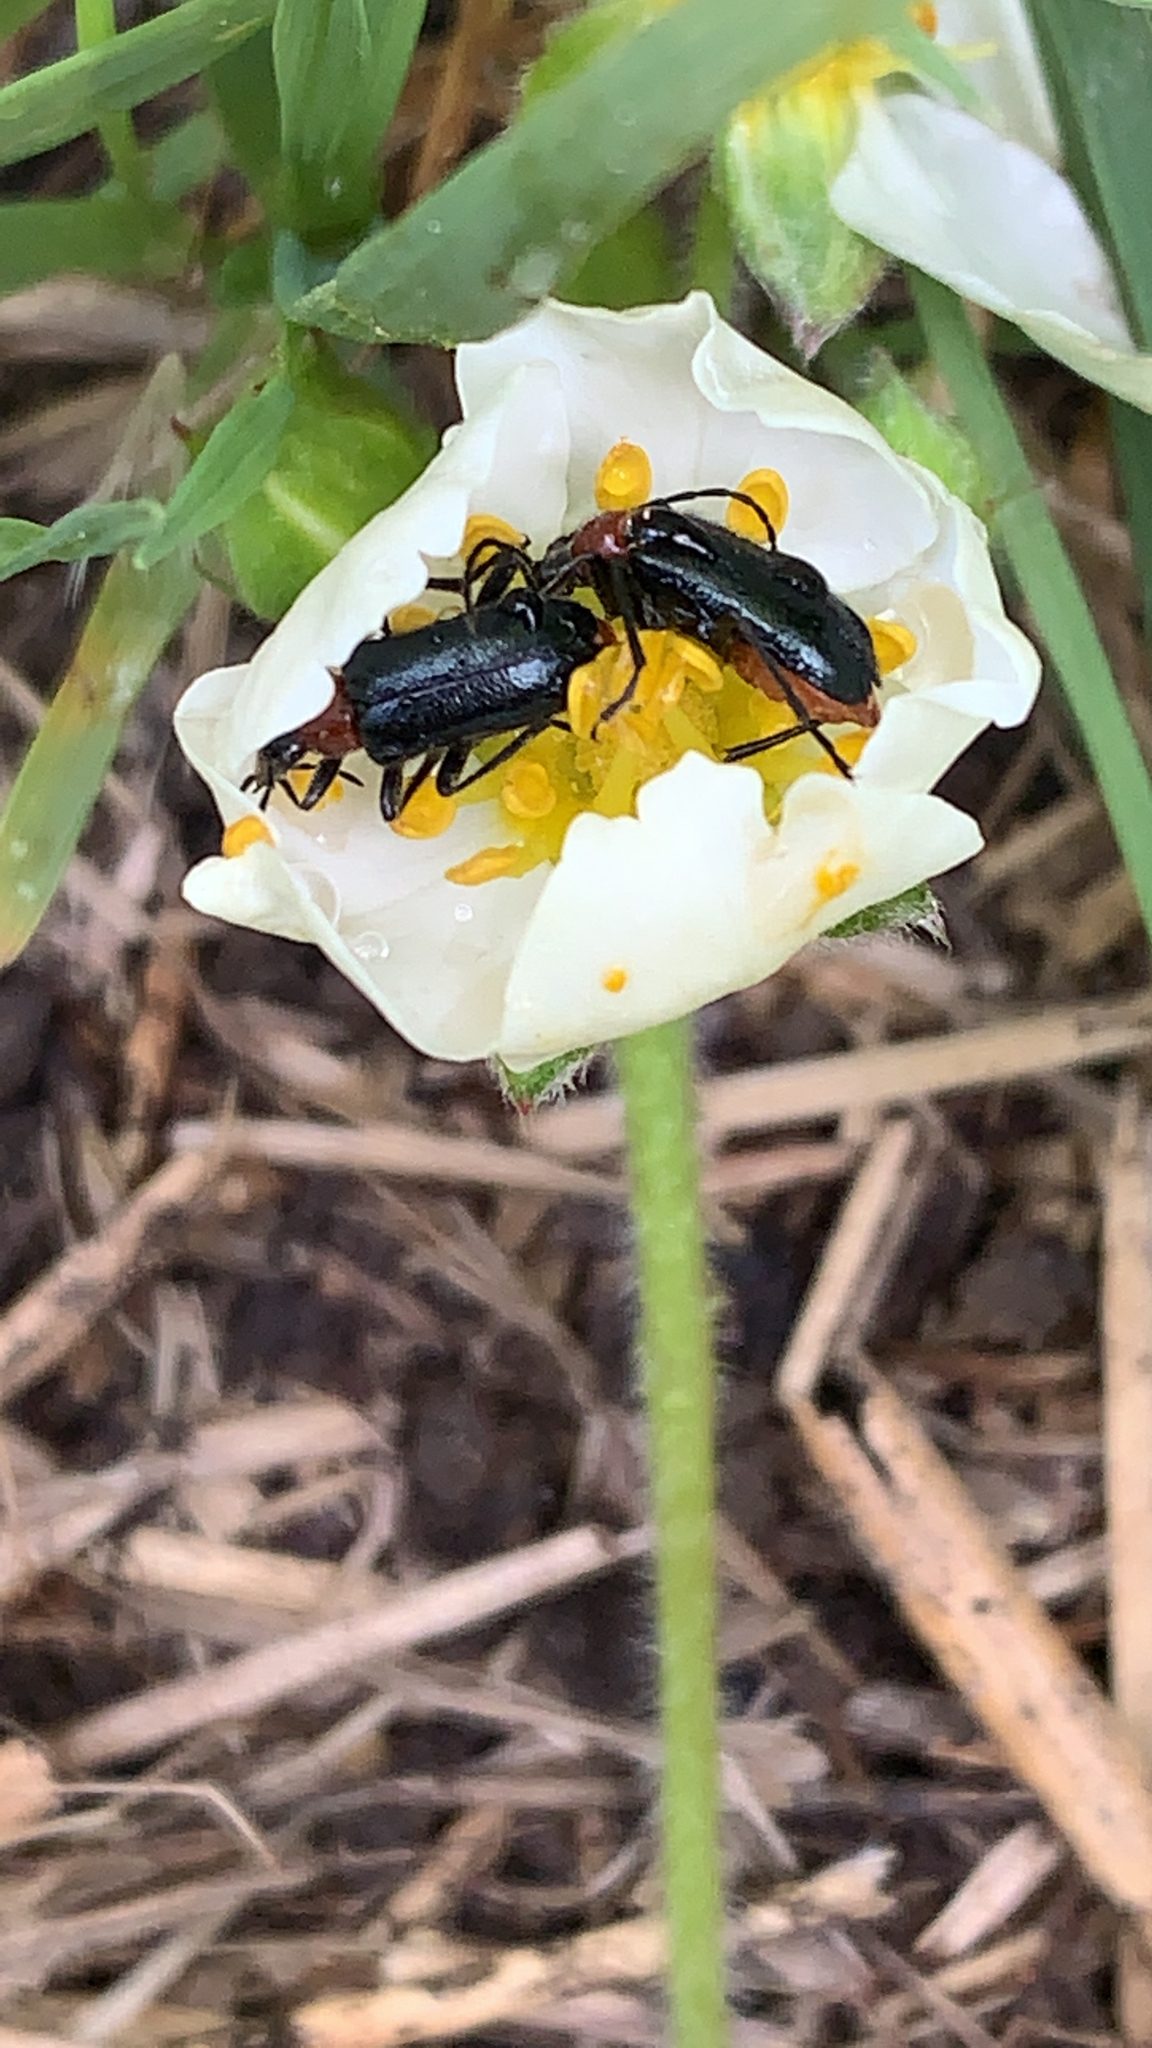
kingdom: Animalia
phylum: Arthropoda
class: Insecta
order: Coleoptera
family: Cerambycidae
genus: Dinoptera
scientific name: Dinoptera collaris
